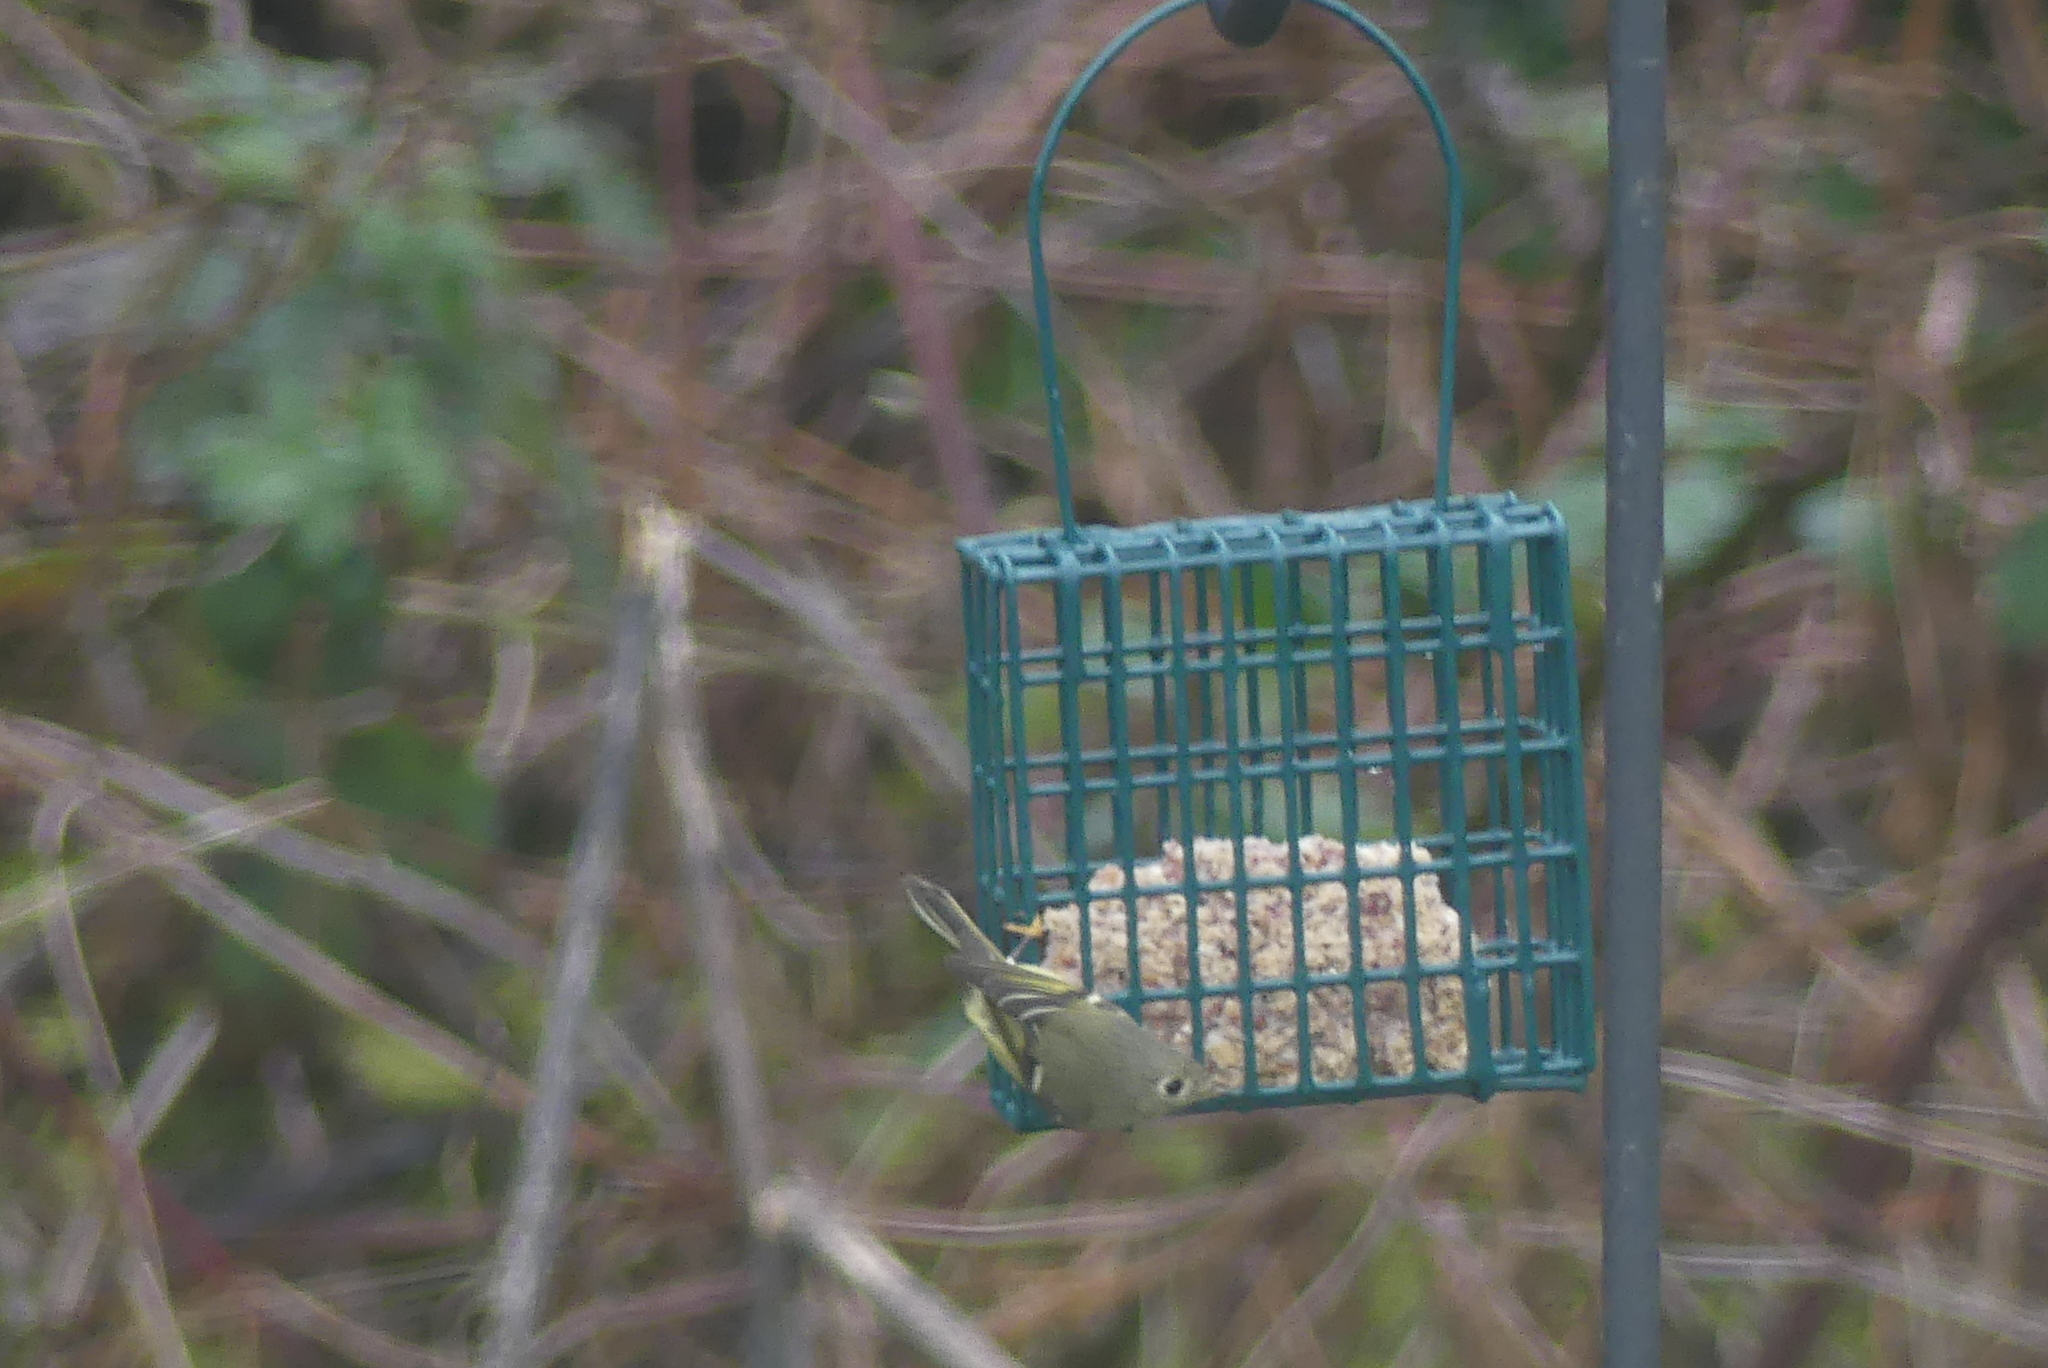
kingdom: Animalia
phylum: Chordata
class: Aves
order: Passeriformes
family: Regulidae
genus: Regulus
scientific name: Regulus calendula
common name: Ruby-crowned kinglet
